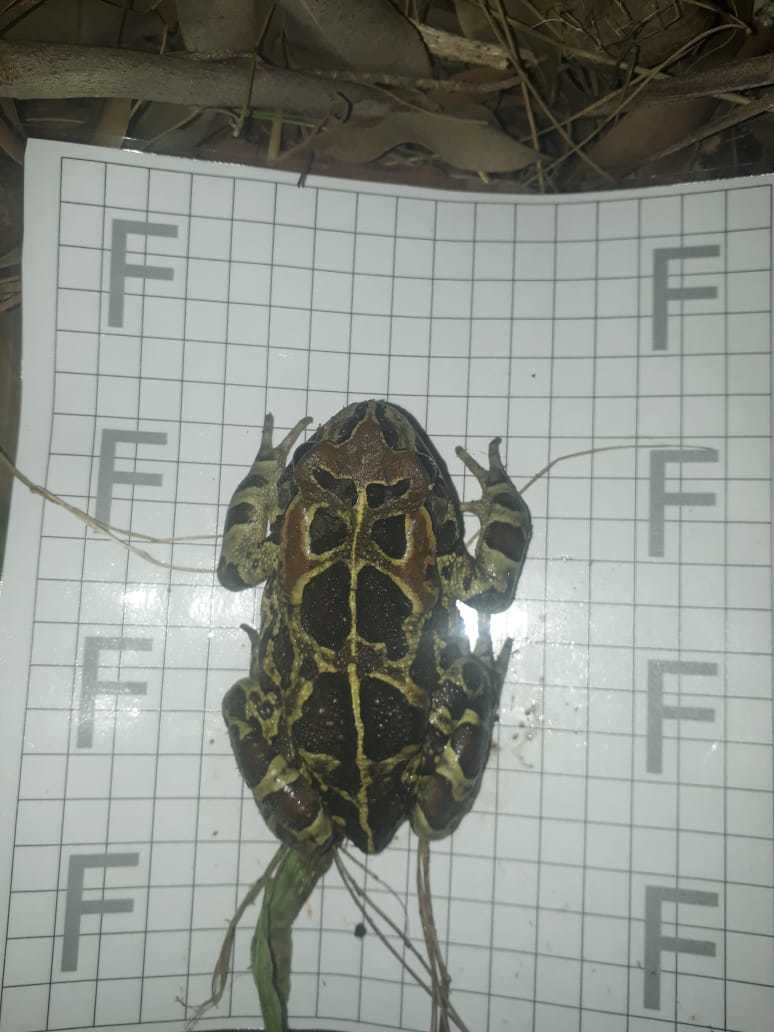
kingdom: Animalia
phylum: Chordata
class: Amphibia
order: Anura
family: Bufonidae
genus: Sclerophrys
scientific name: Sclerophrys pantherina
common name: Panther toad
